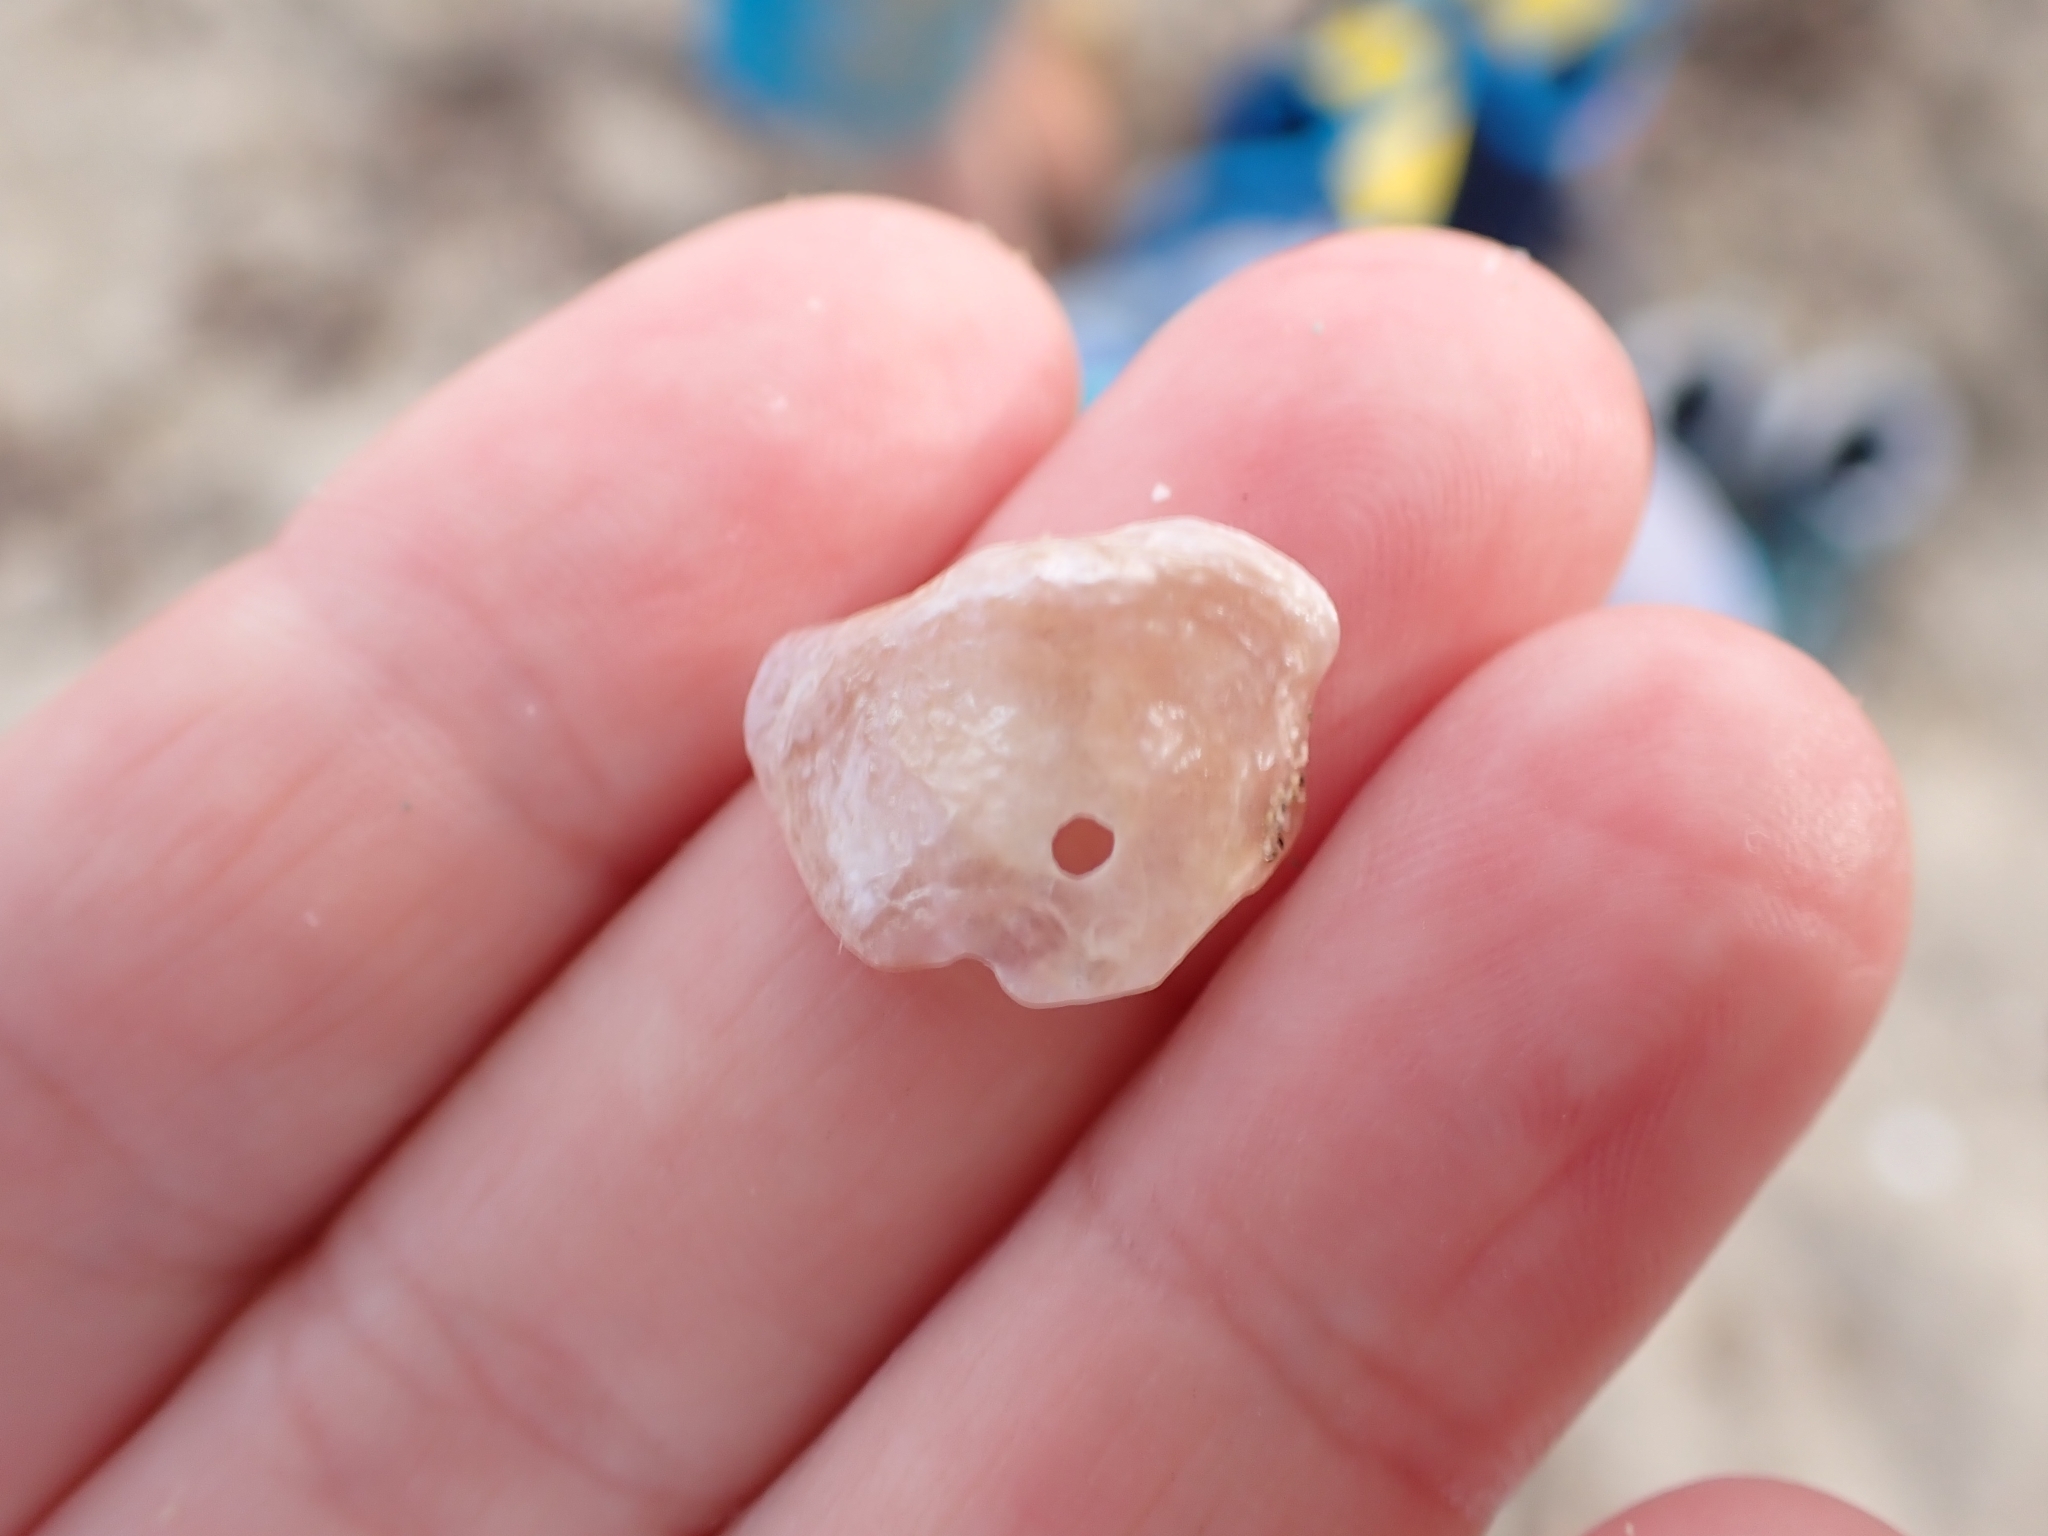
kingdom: Animalia
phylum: Mollusca
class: Bivalvia
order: Pectinida
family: Anomiidae
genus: Anomia
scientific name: Anomia ephippium
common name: Saddle oyster
